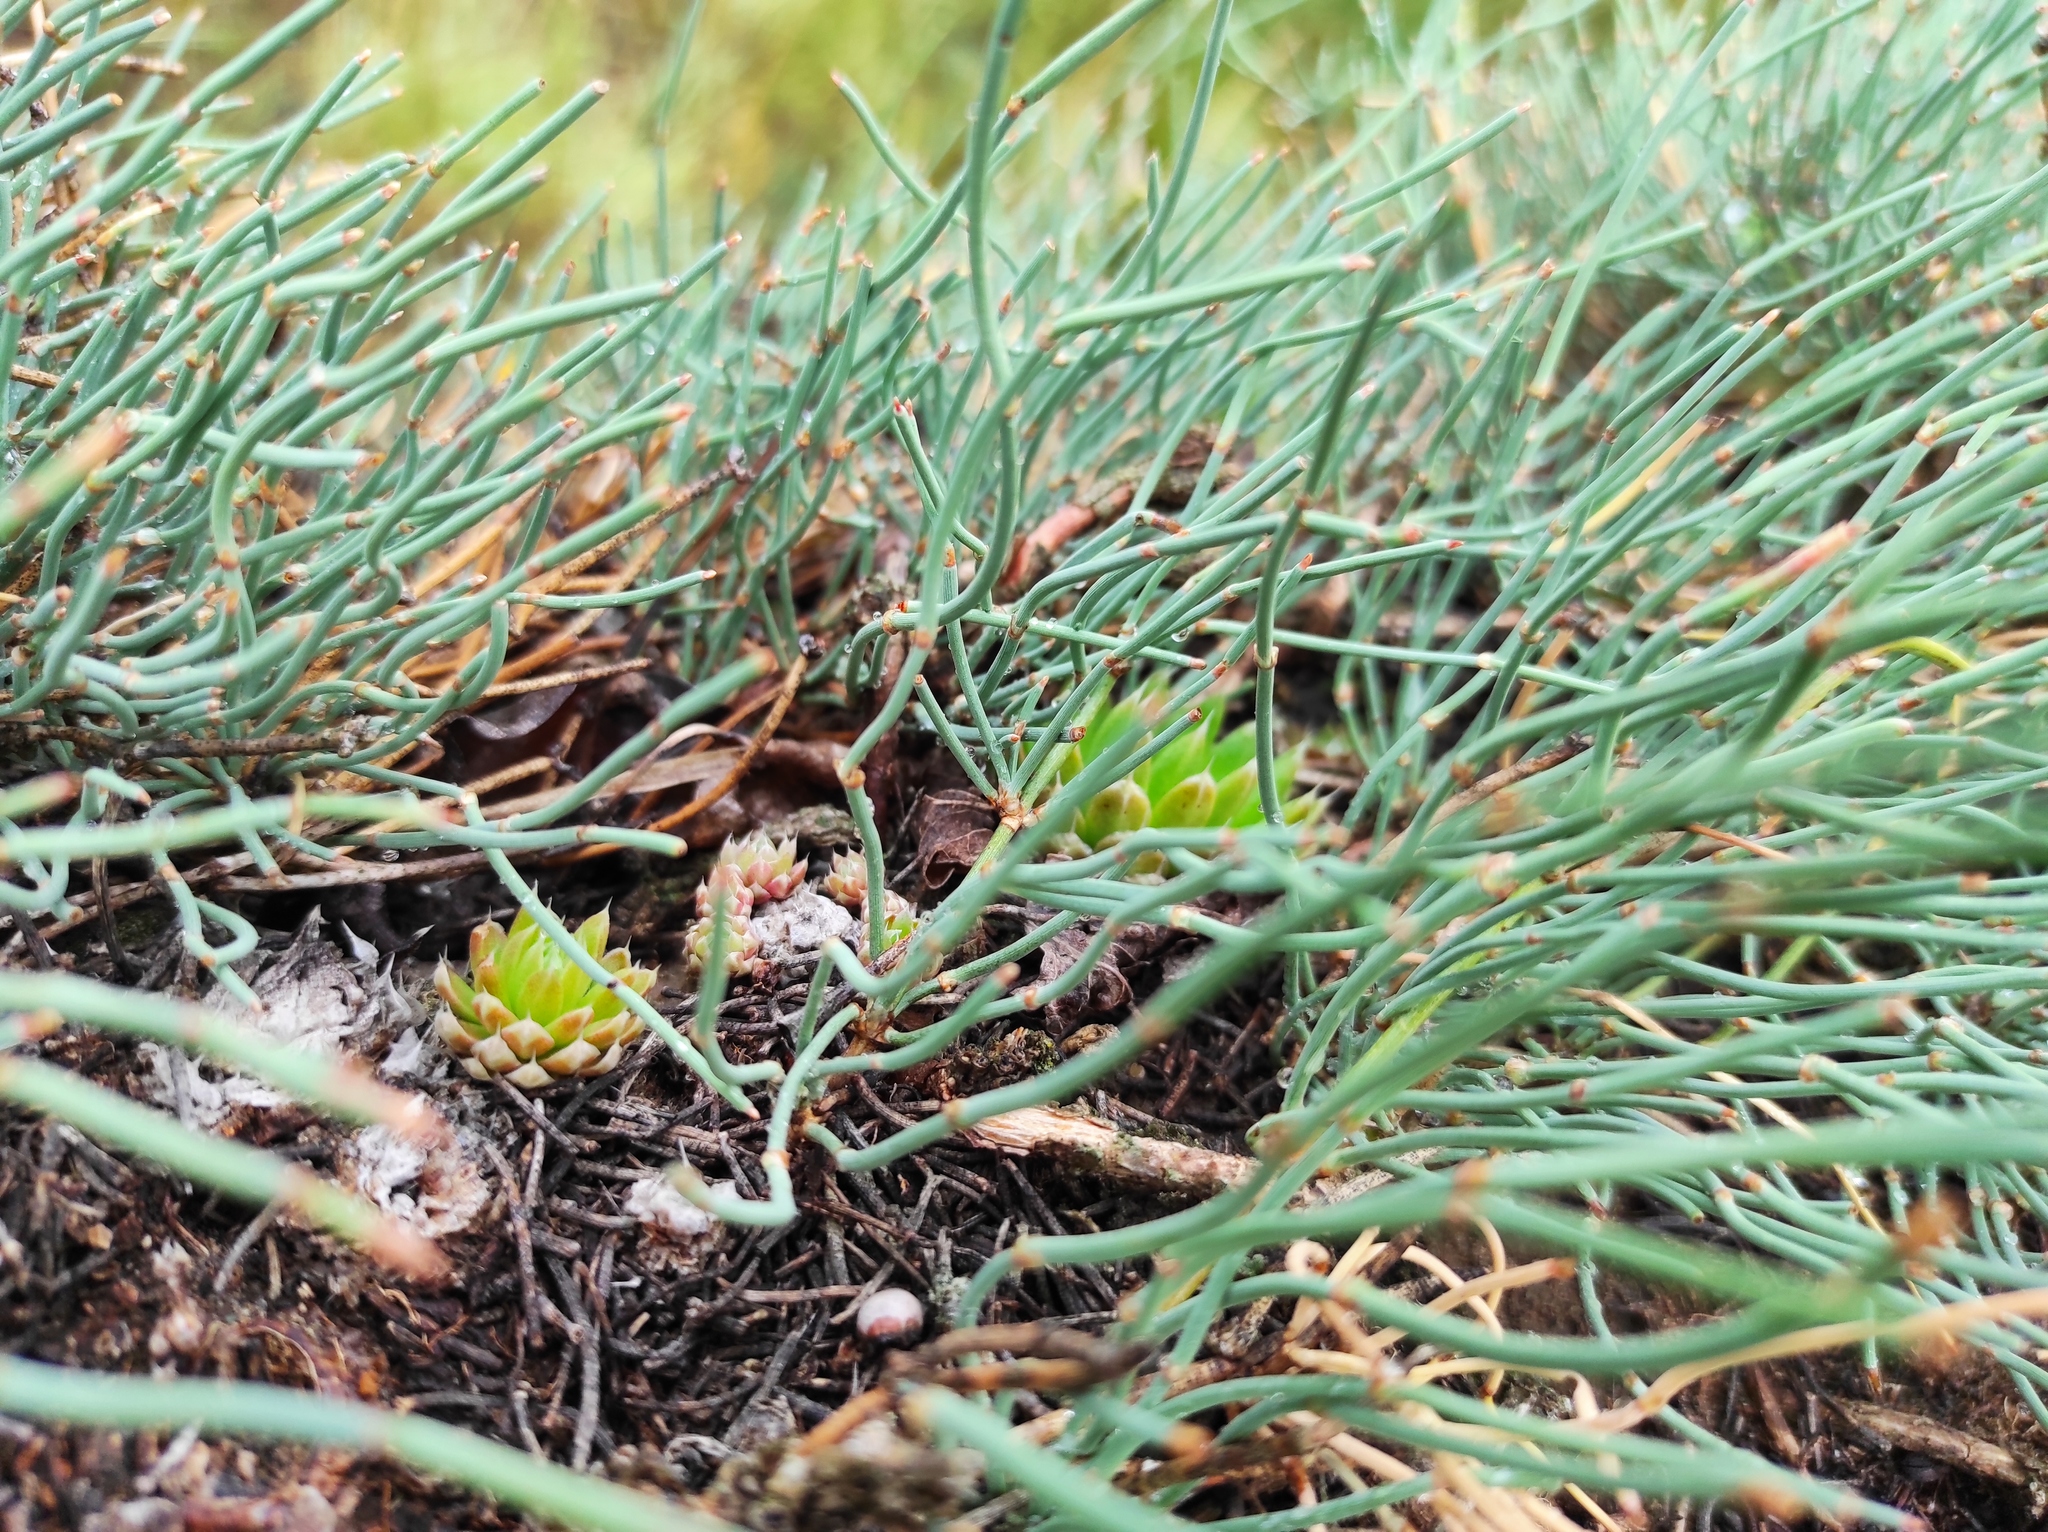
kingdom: Plantae
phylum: Tracheophyta
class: Gnetopsida
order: Ephedrales
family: Ephedraceae
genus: Ephedra
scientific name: Ephedra distachya
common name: Sea grape
